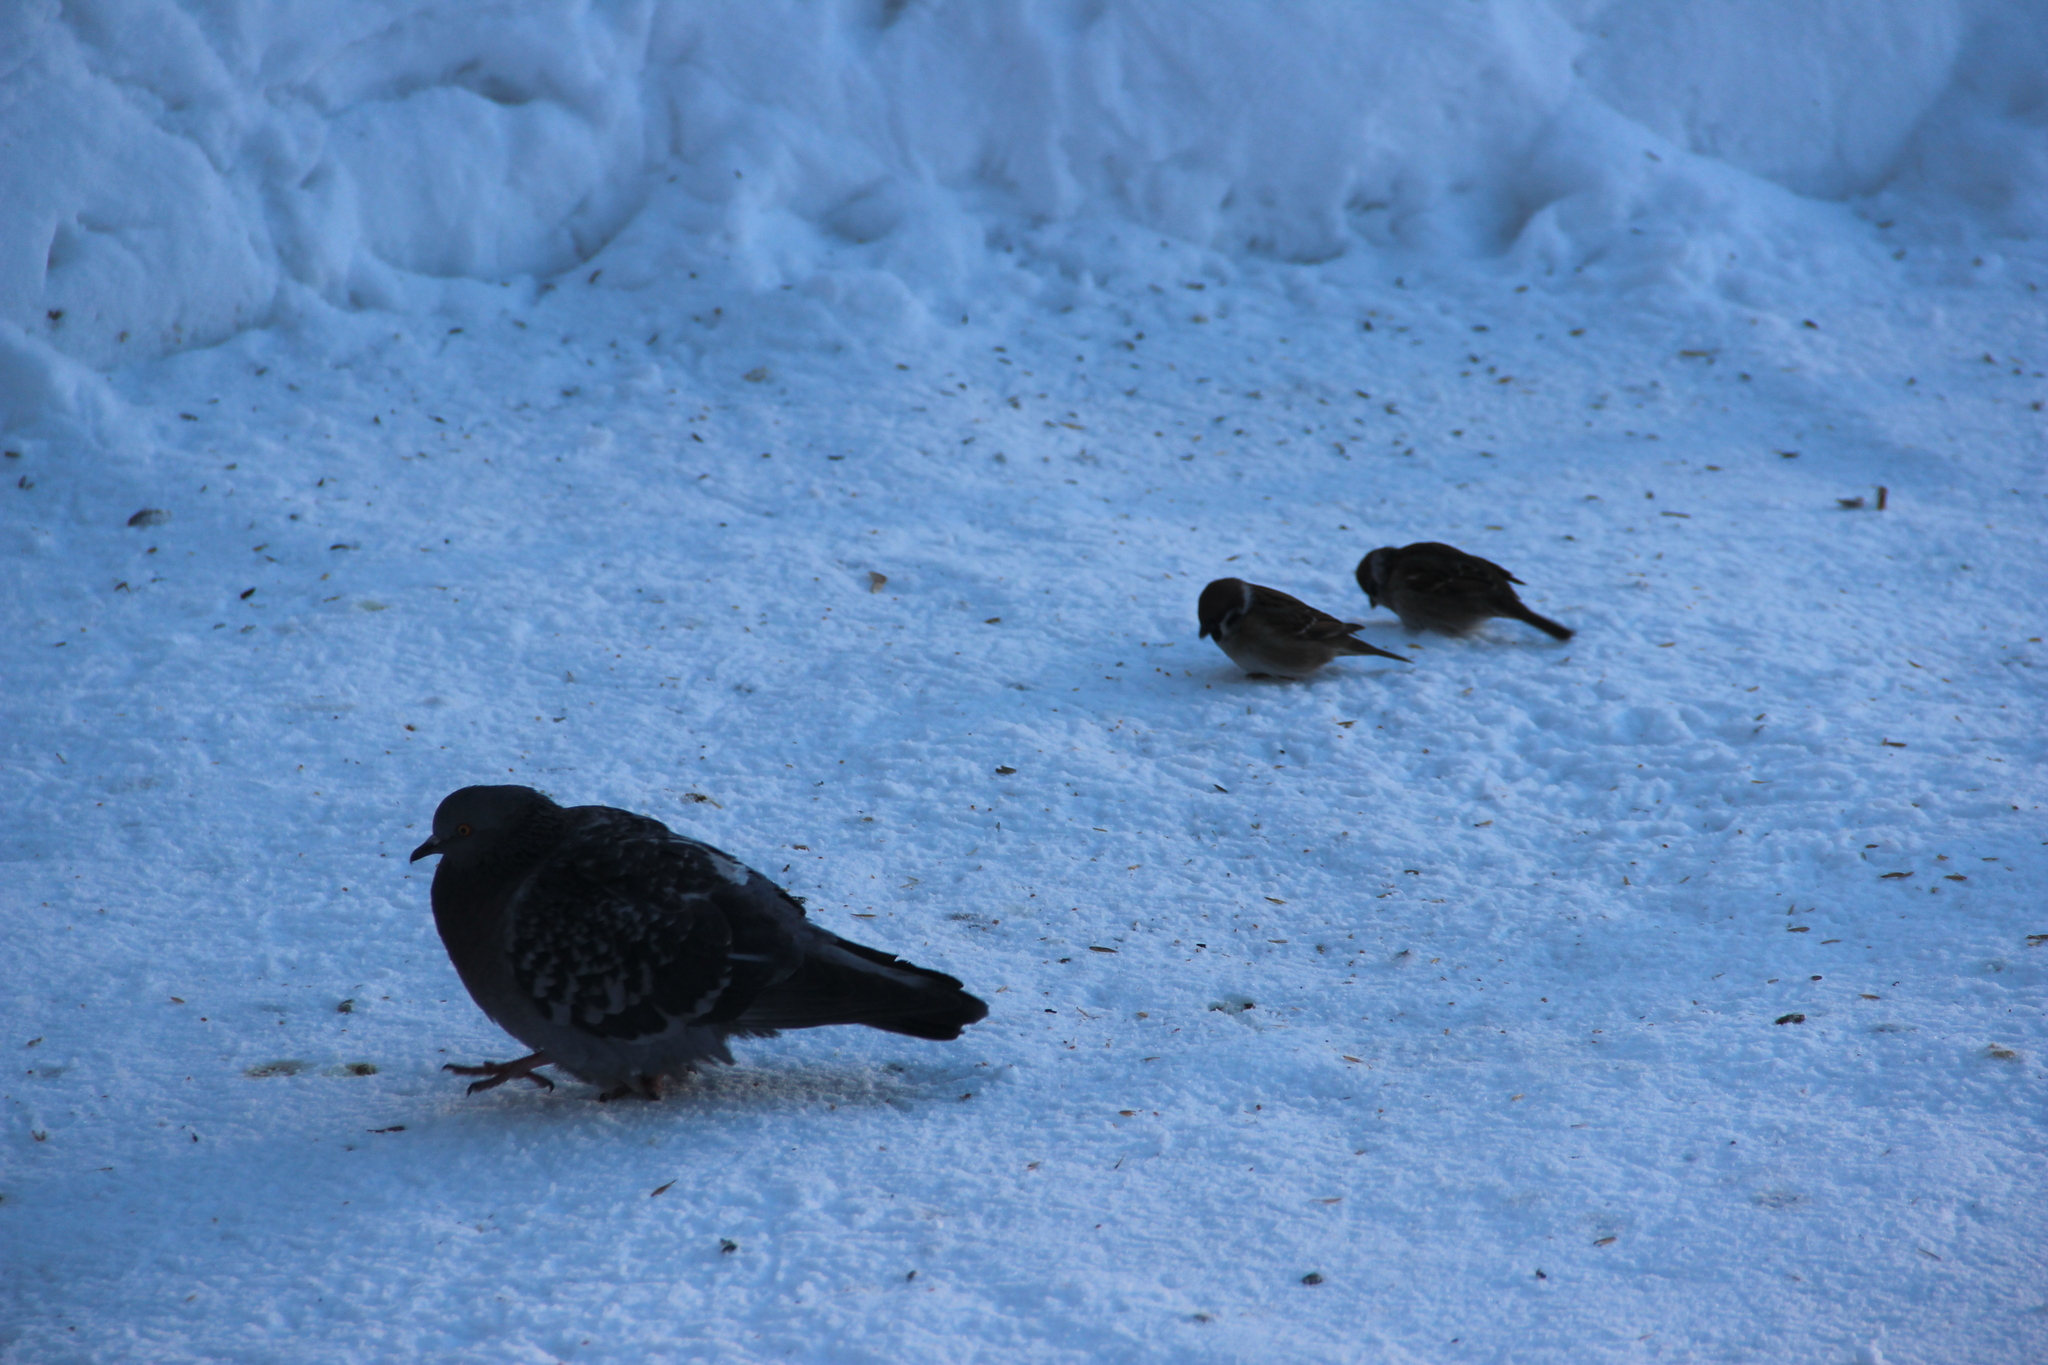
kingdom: Animalia
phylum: Chordata
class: Aves
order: Passeriformes
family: Passeridae
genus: Passer
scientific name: Passer montanus
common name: Eurasian tree sparrow
